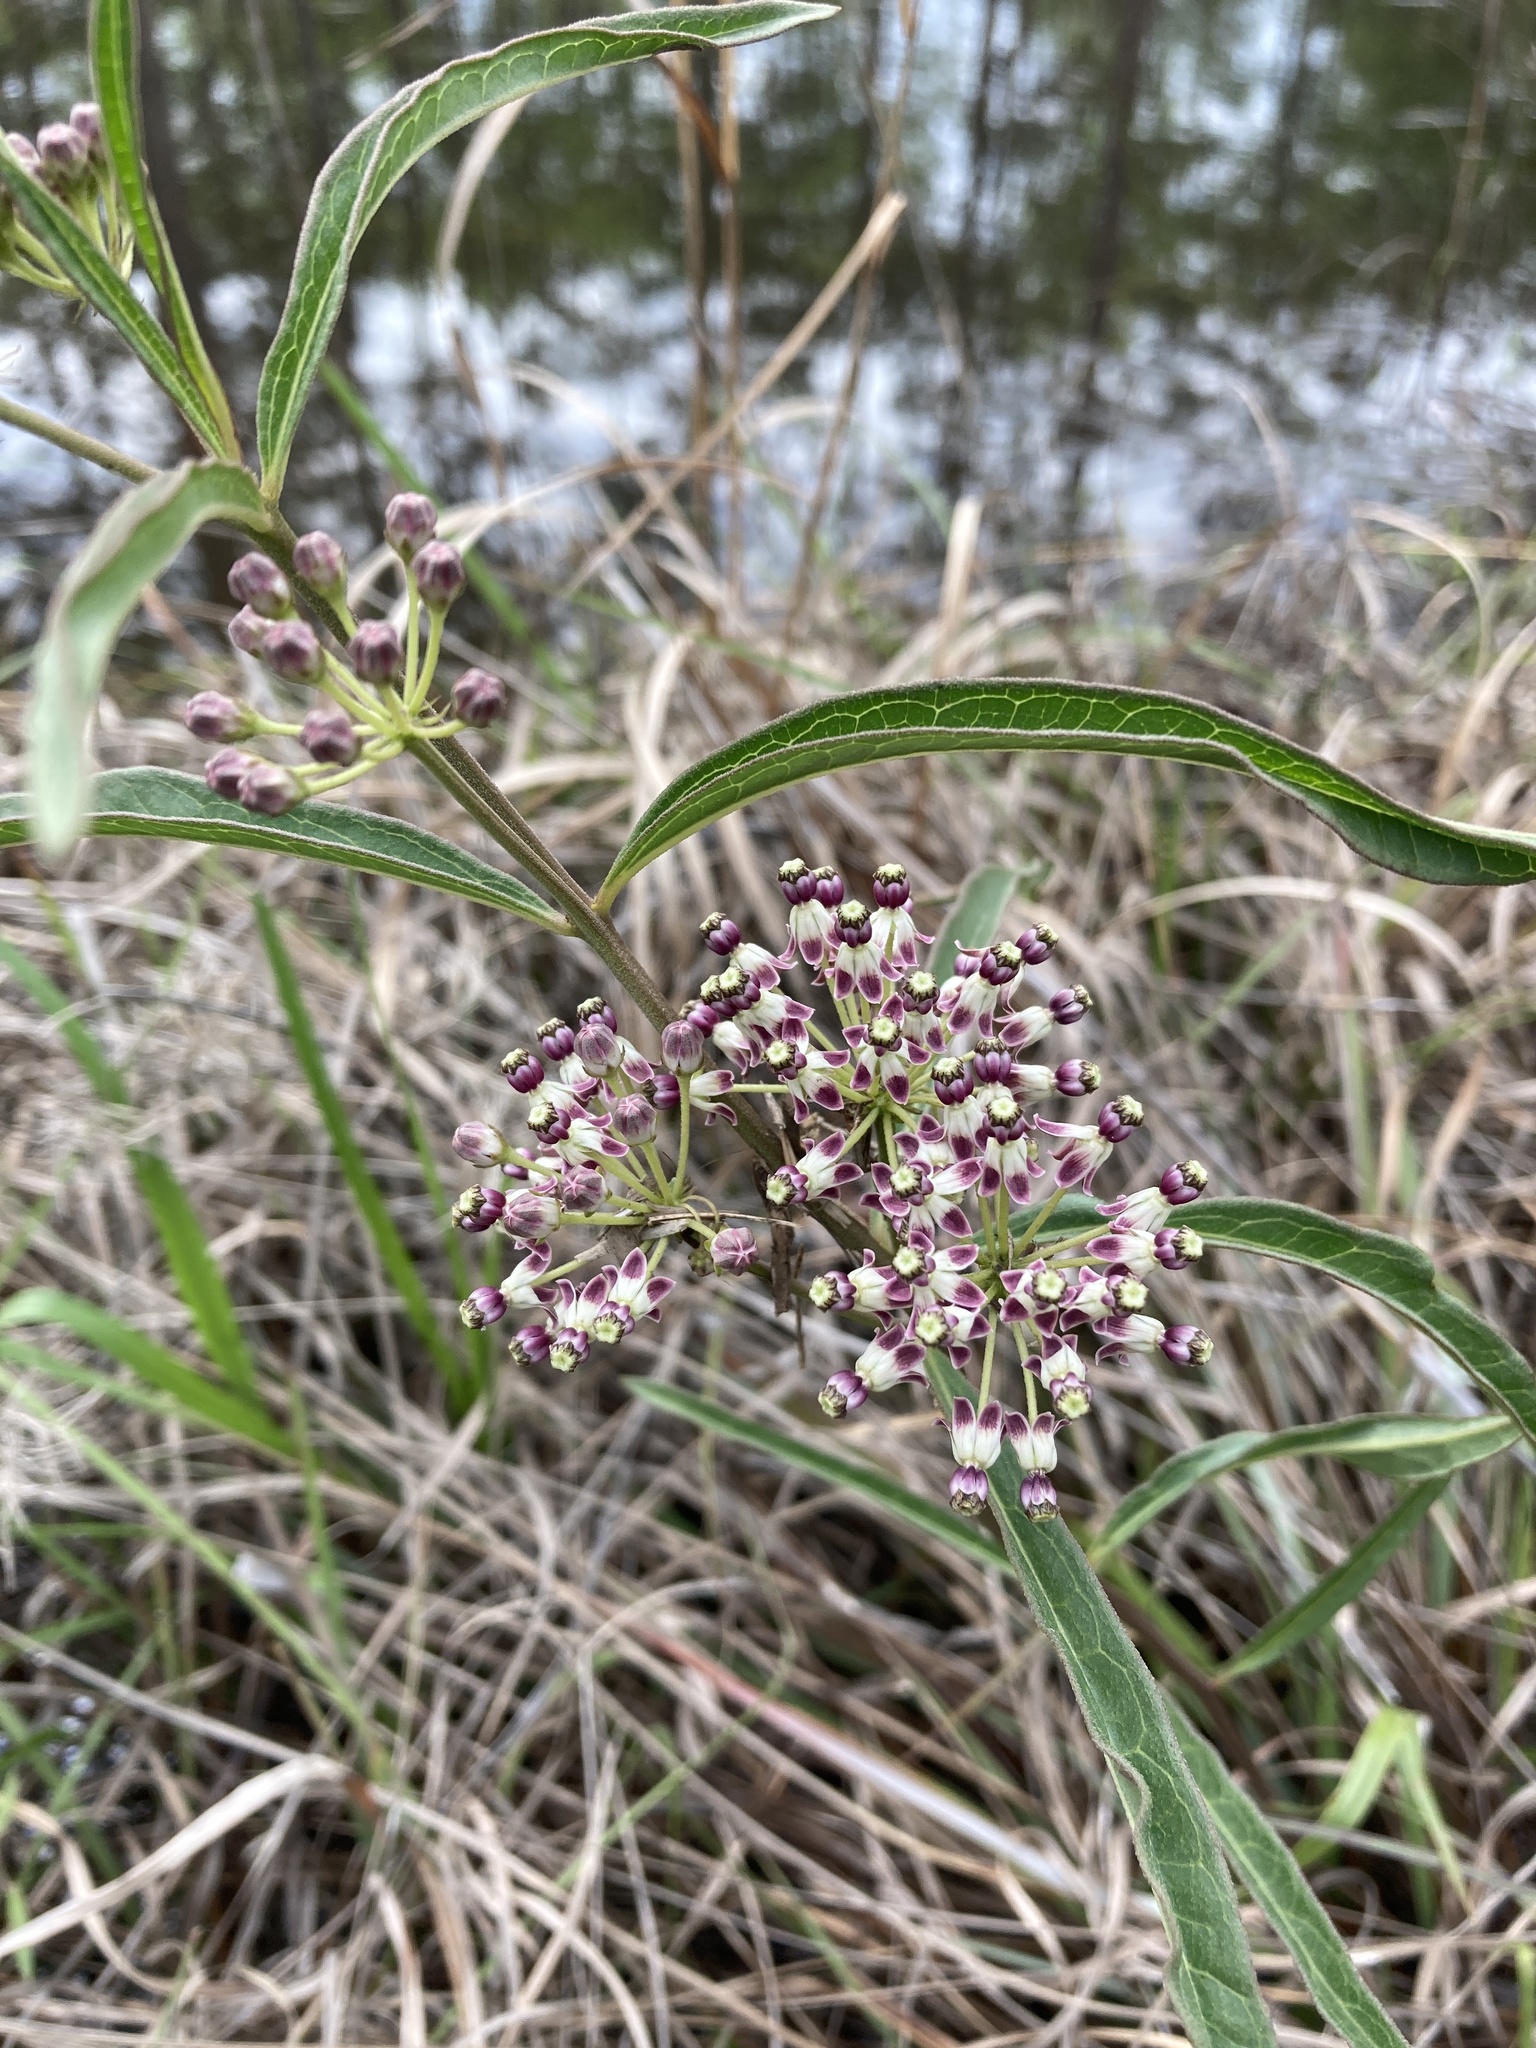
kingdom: Plantae
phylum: Tracheophyta
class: Magnoliopsida
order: Gentianales
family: Apocynaceae
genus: Asclepias
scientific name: Asclepias longifolia
